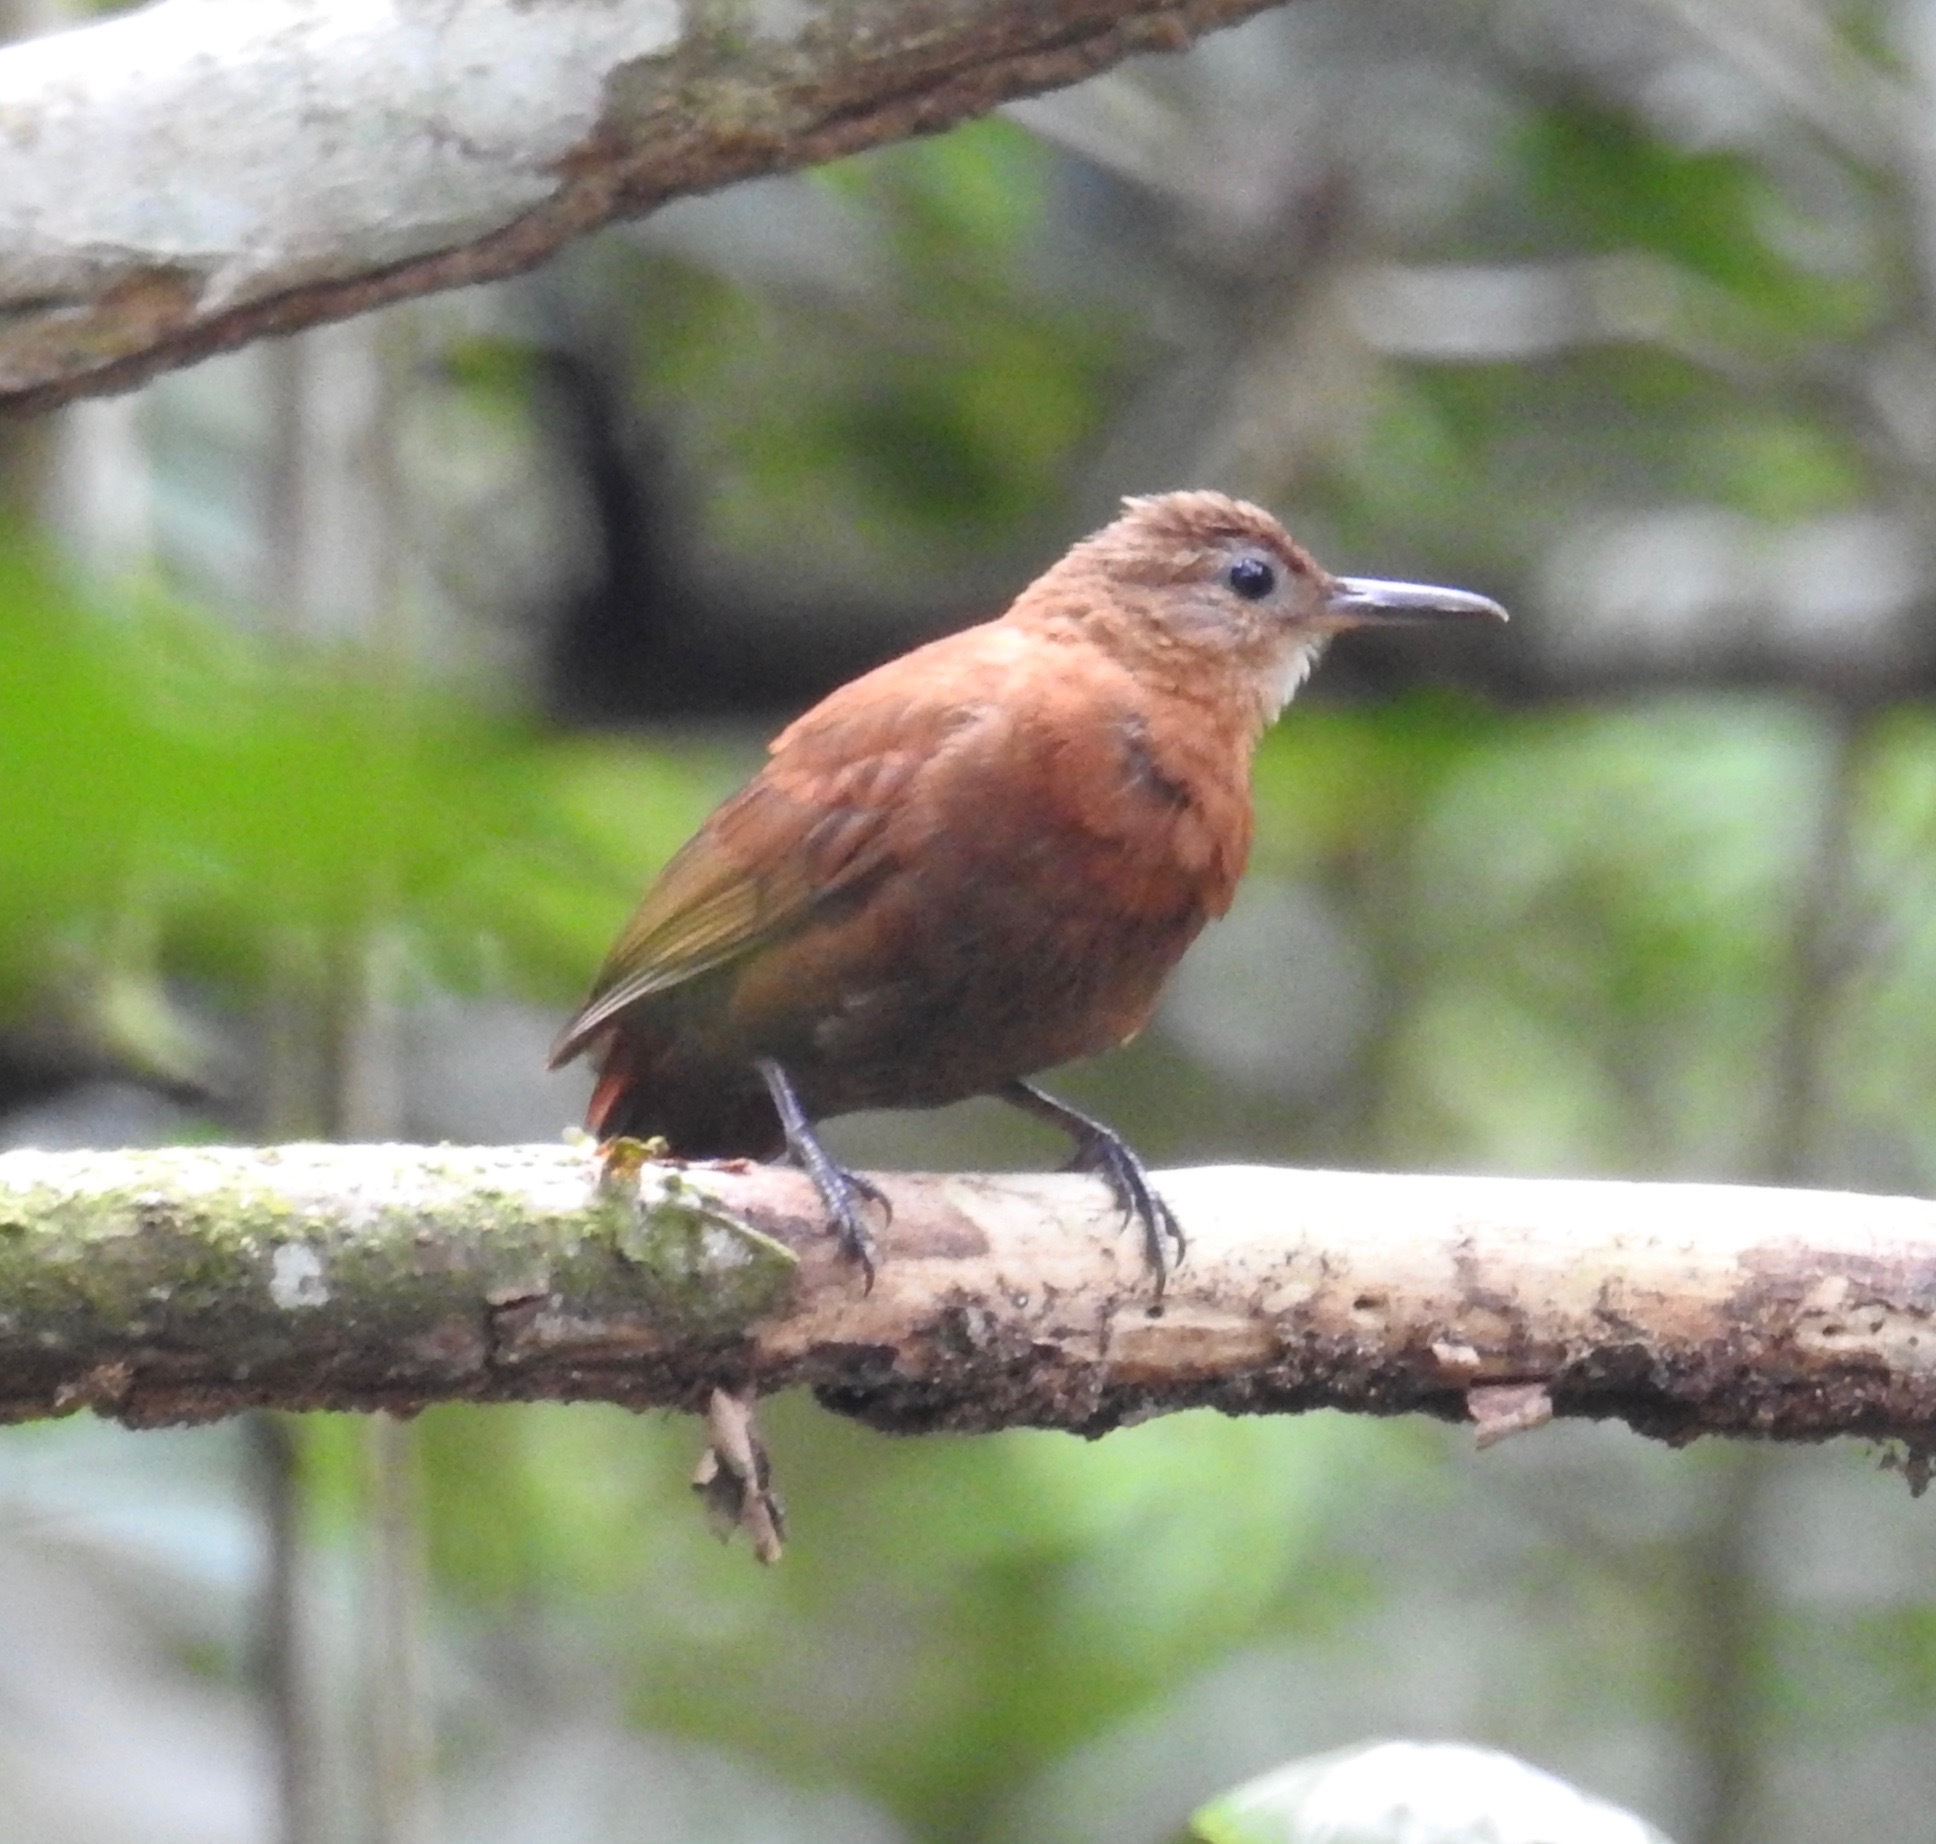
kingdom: Animalia
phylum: Chordata
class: Aves
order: Passeriformes
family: Furnariidae
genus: Sclerurus
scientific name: Sclerurus scansor
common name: Rufous-breasted leaftosser
